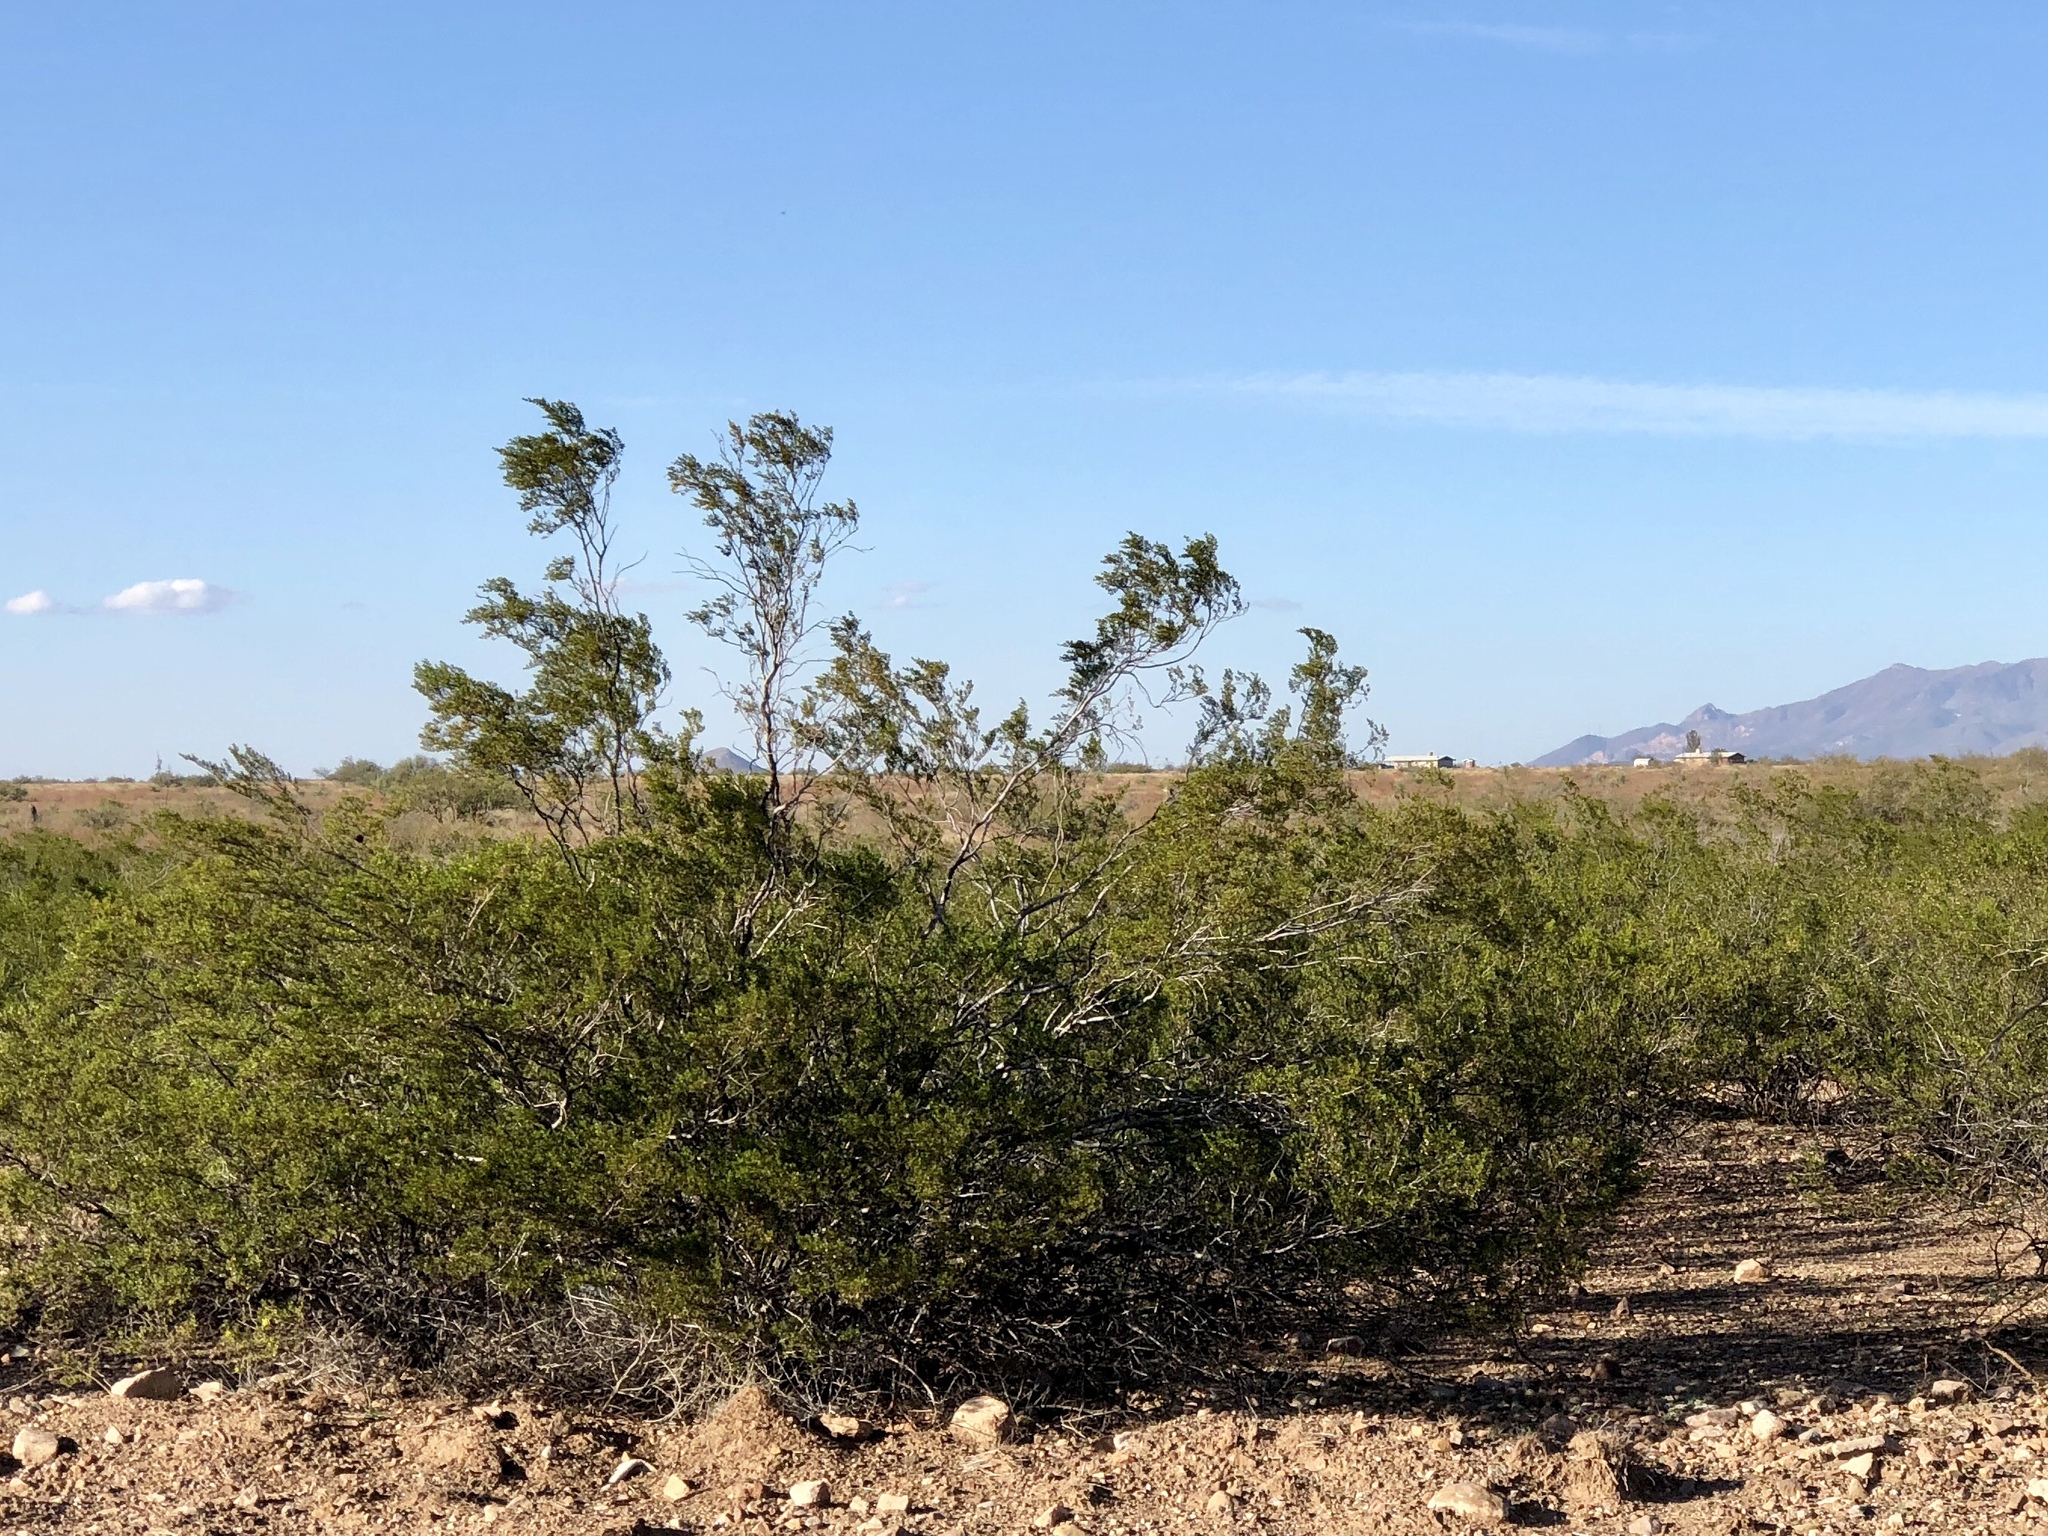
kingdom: Plantae
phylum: Tracheophyta
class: Magnoliopsida
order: Zygophyllales
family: Zygophyllaceae
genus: Larrea
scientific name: Larrea tridentata
